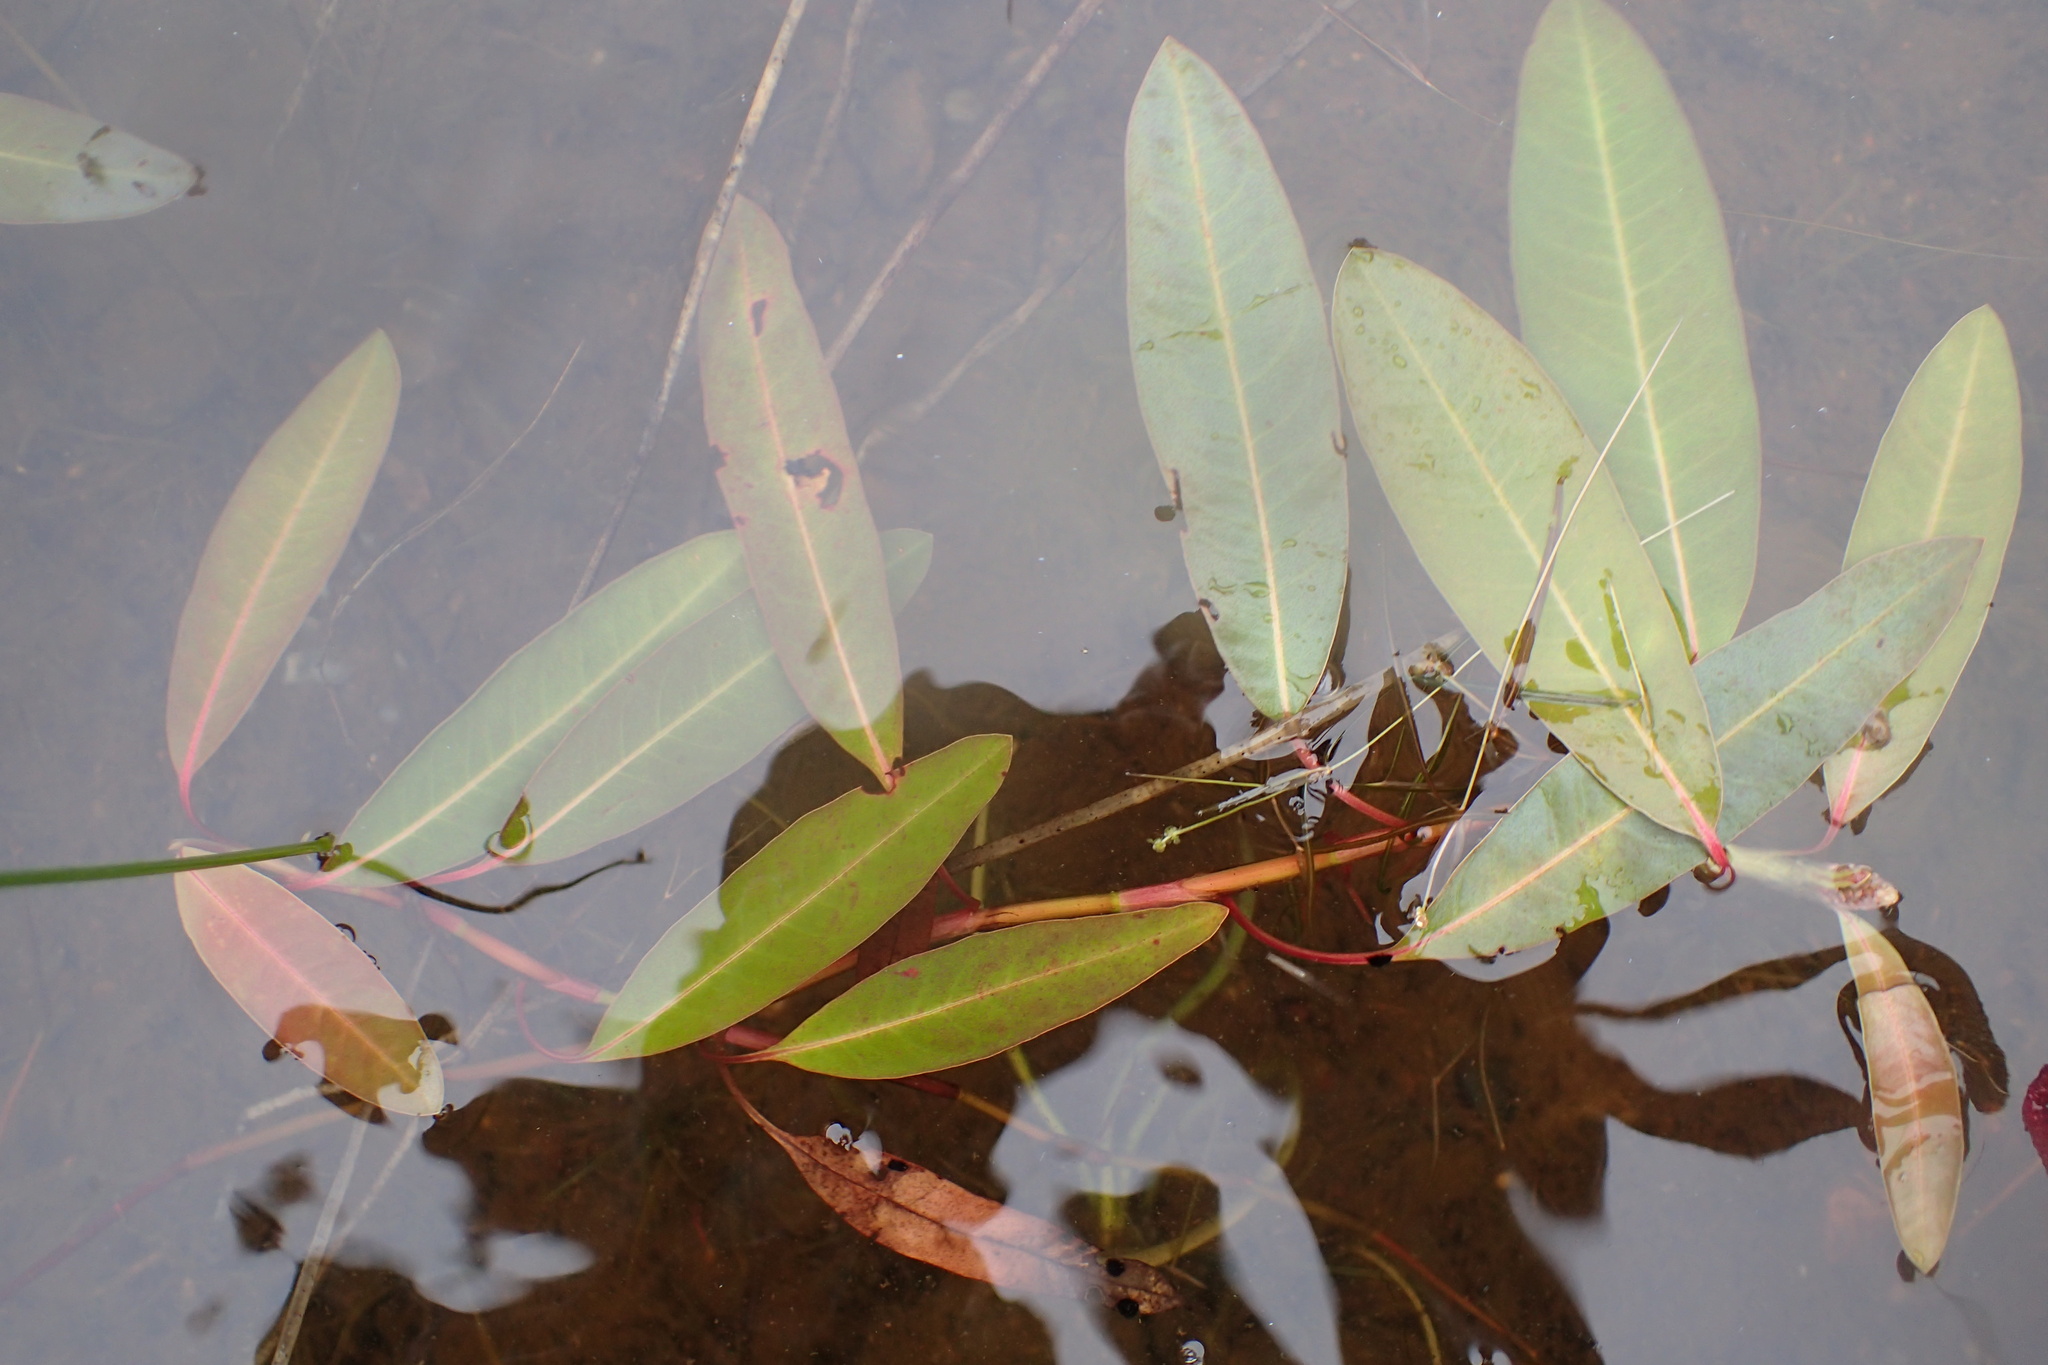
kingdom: Plantae
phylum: Tracheophyta
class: Magnoliopsida
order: Caryophyllales
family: Polygonaceae
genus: Persicaria
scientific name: Persicaria amphibia
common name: Amphibious bistort
